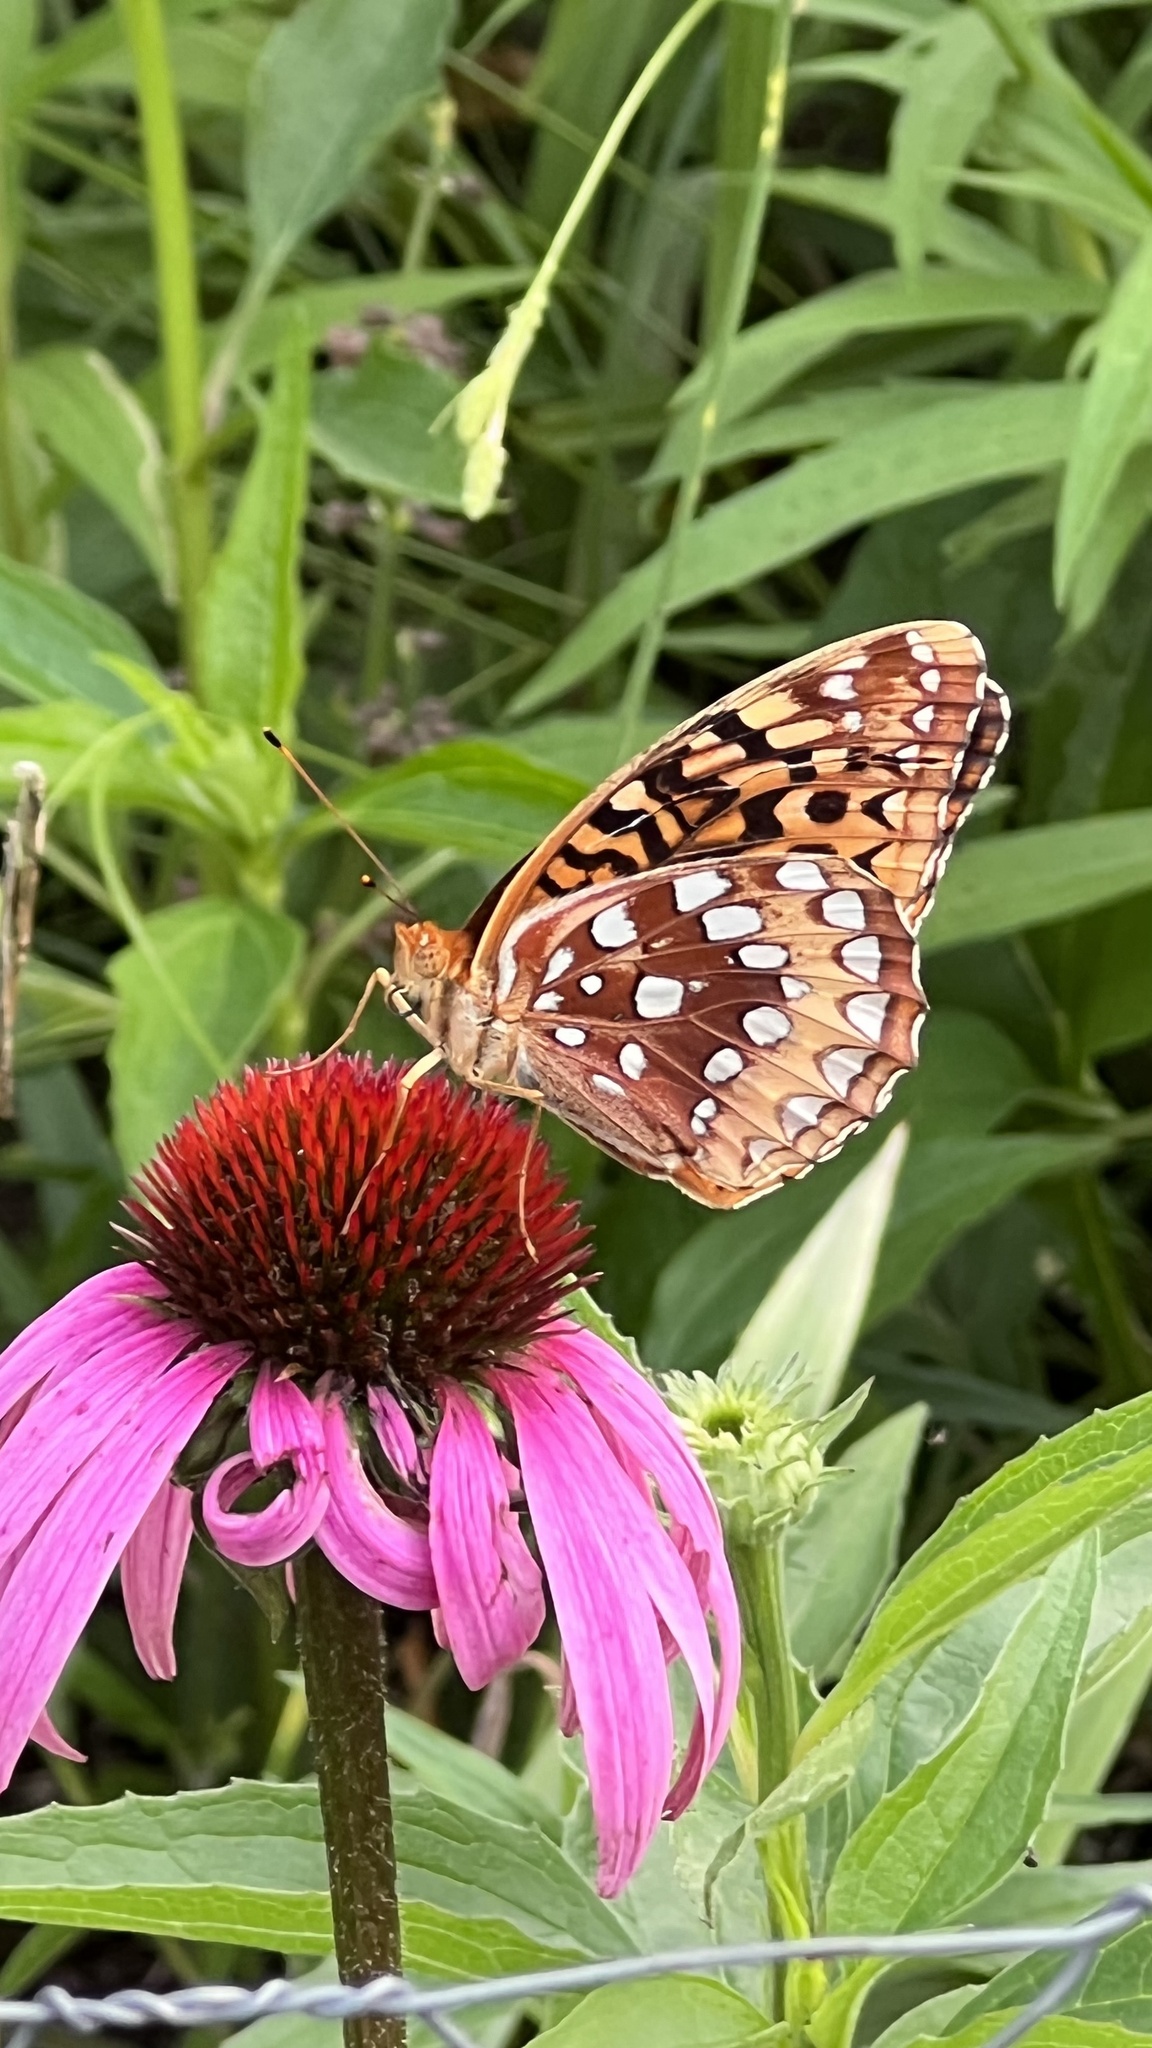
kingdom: Animalia
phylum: Arthropoda
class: Insecta
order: Lepidoptera
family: Nymphalidae
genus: Speyeria
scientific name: Speyeria cybele
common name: Great spangled fritillary
